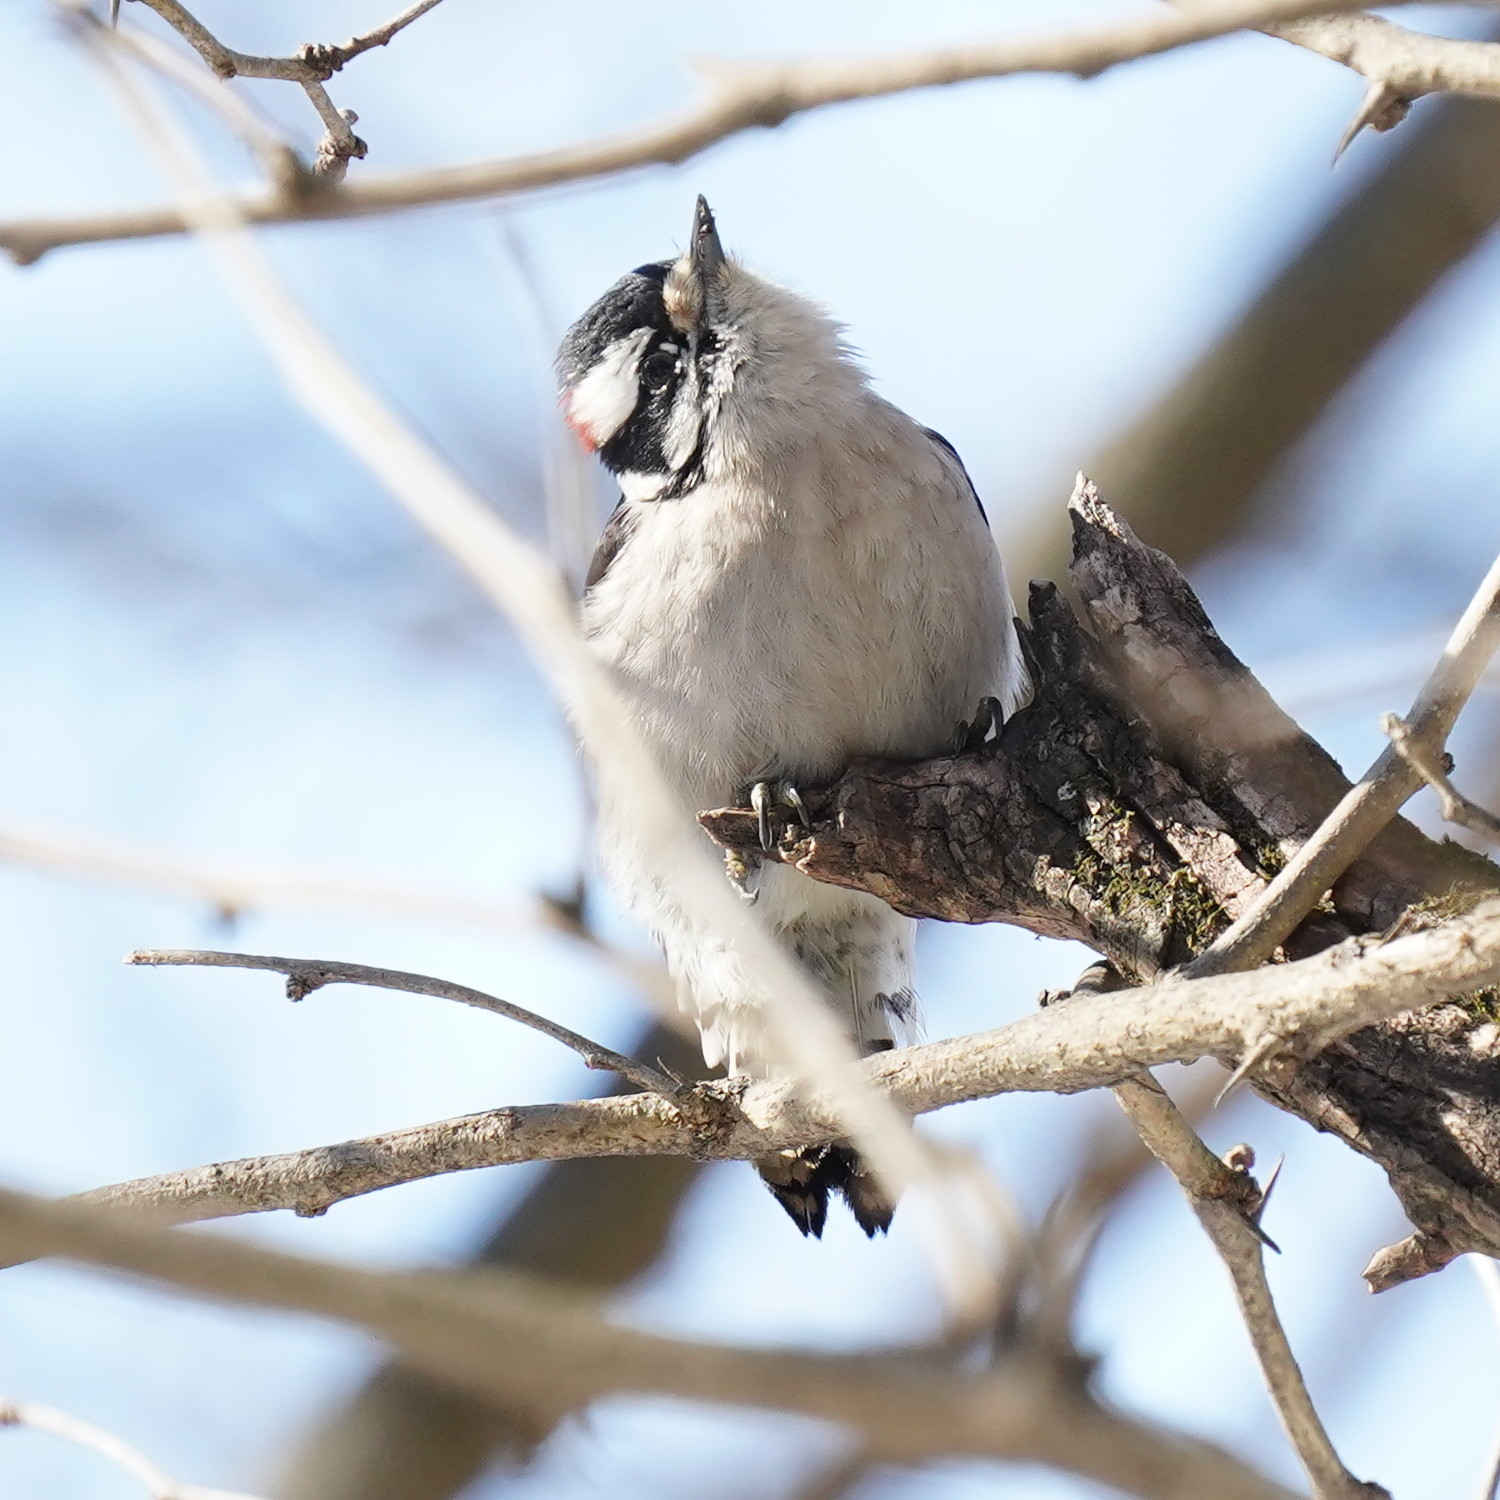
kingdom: Animalia
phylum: Chordata
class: Aves
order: Piciformes
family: Picidae
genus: Dryobates
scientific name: Dryobates pubescens
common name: Downy woodpecker
